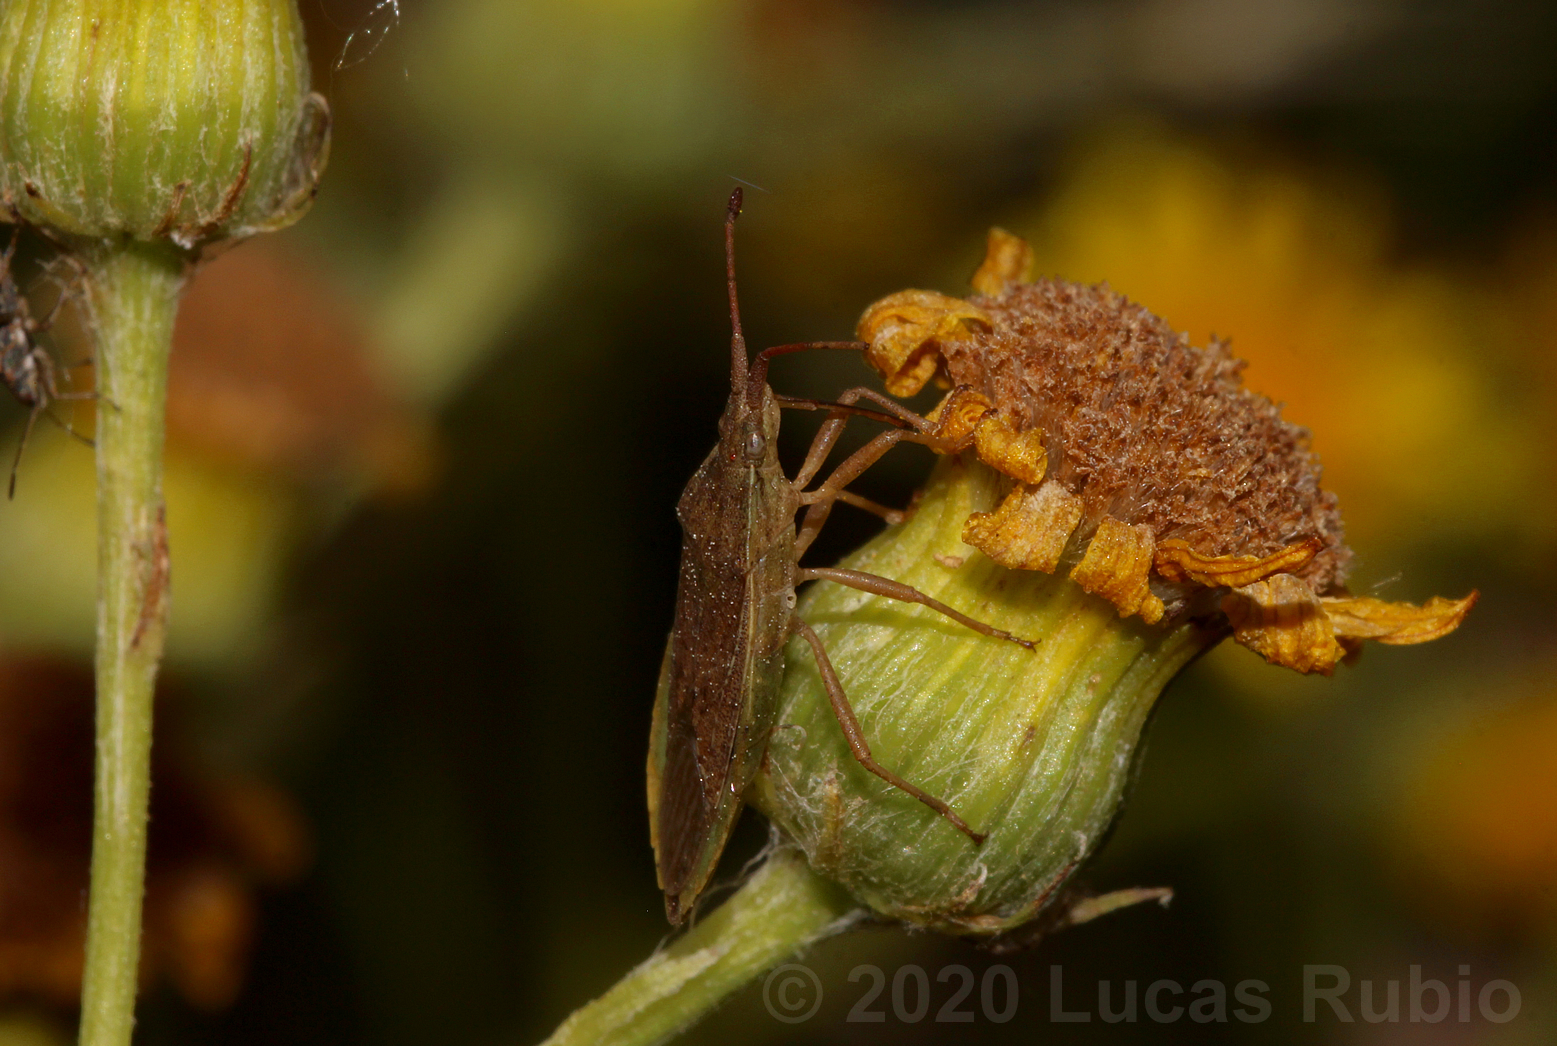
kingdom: Animalia
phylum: Arthropoda
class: Insecta
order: Hemiptera
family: Coreidae
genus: Althos
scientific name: Althos pallescens
